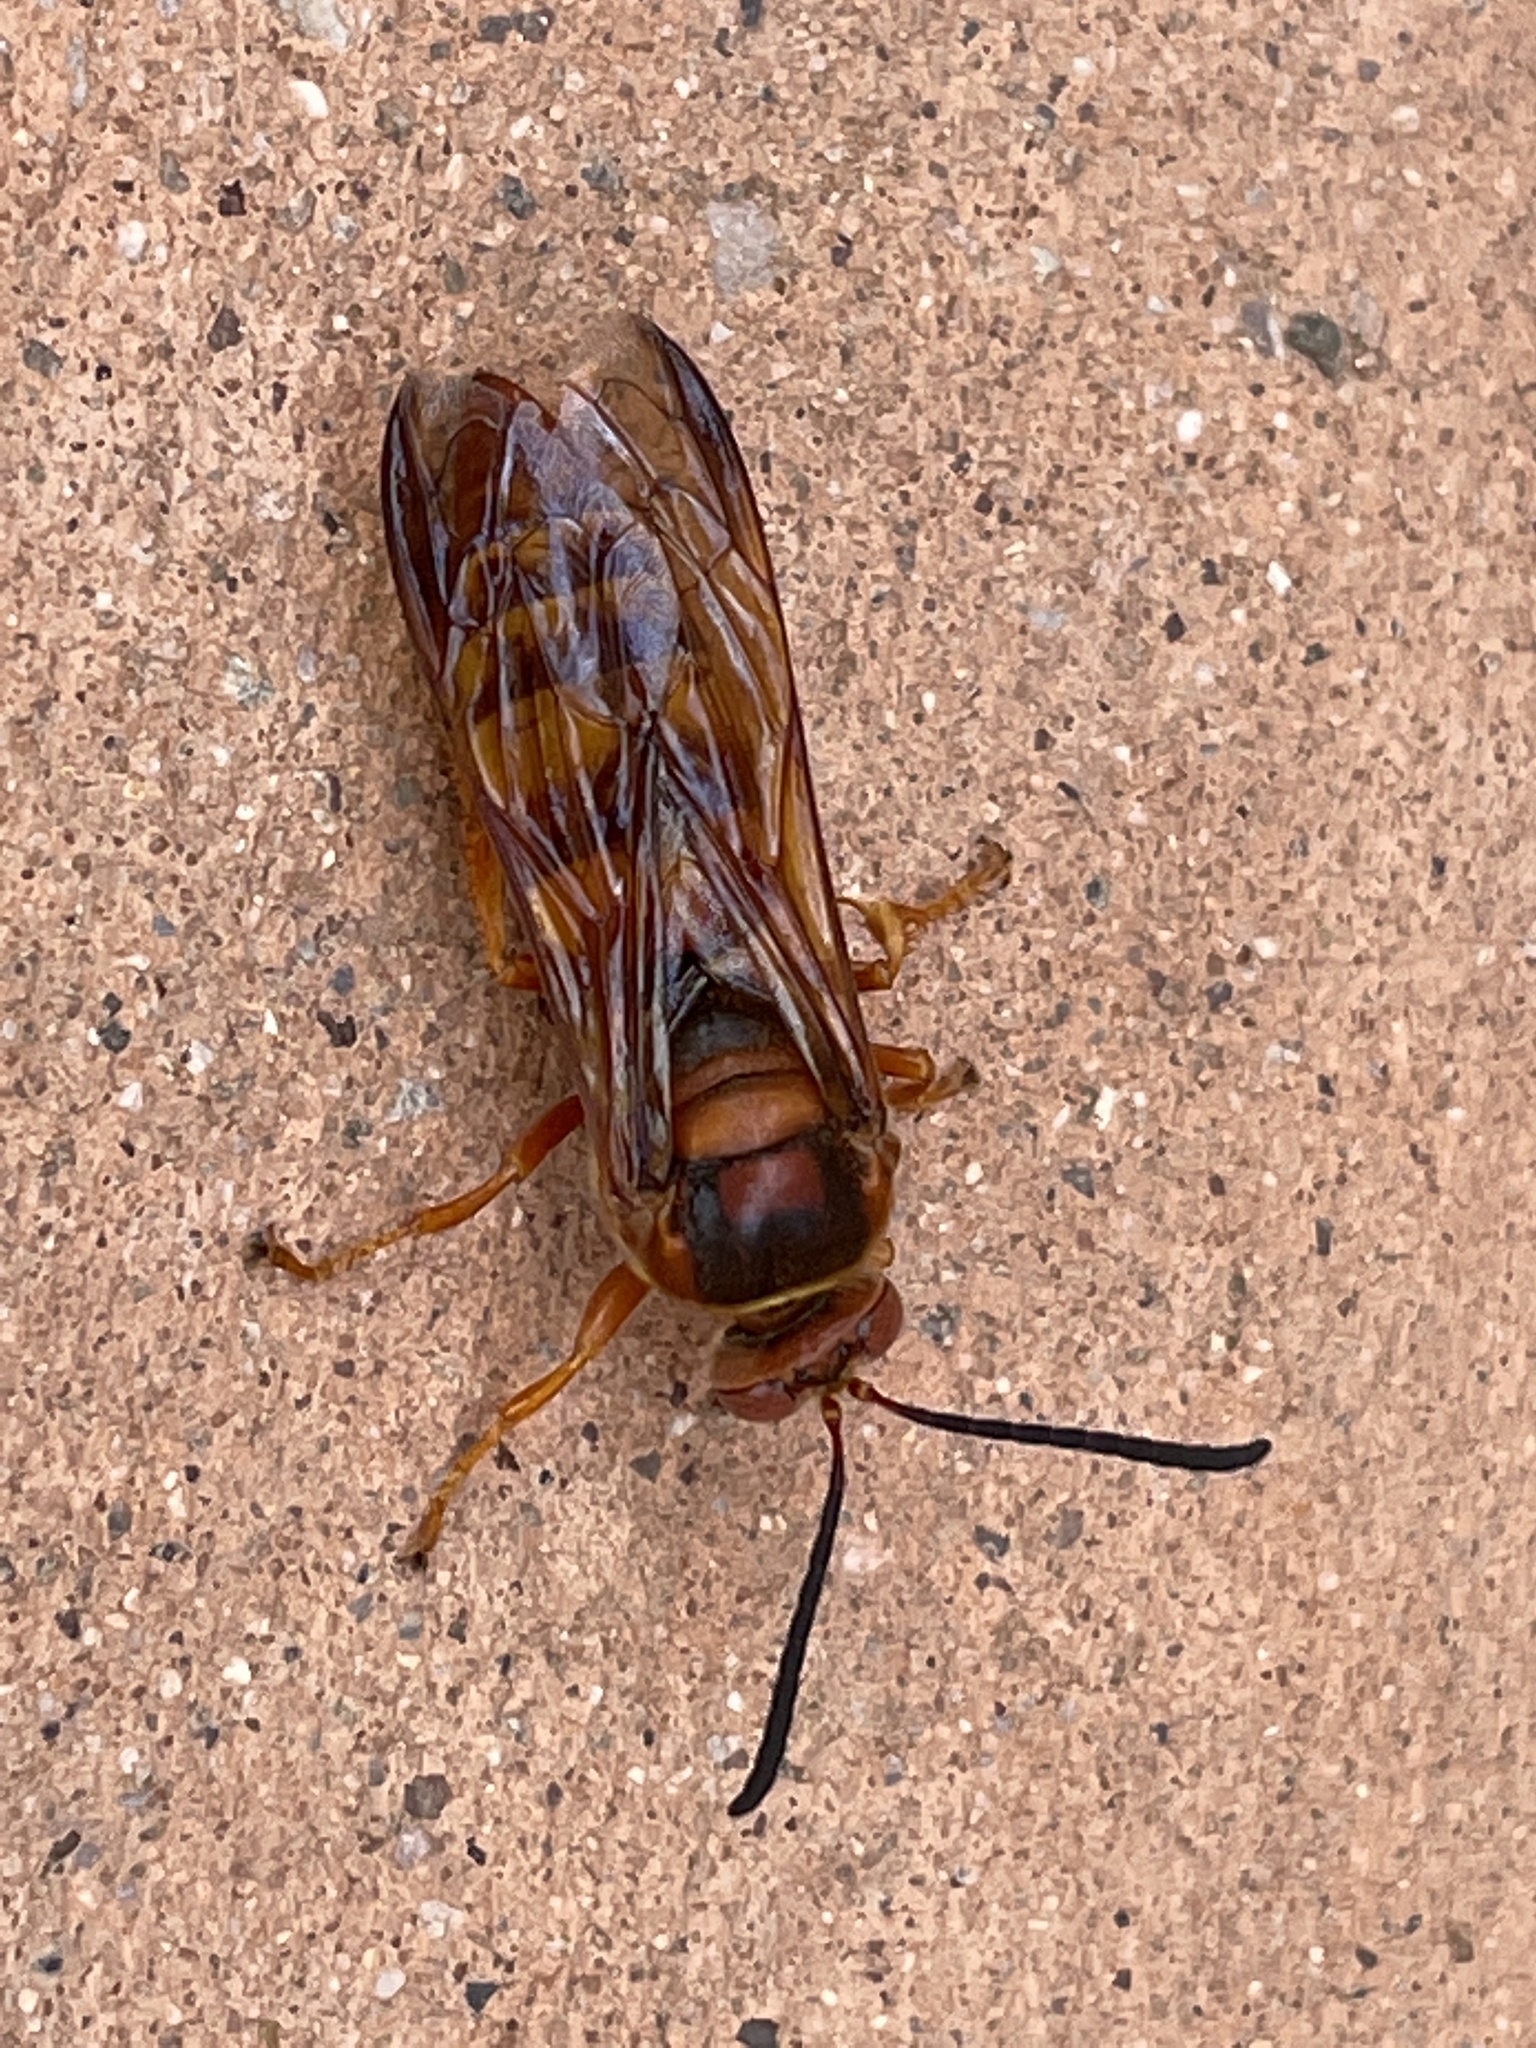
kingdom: Animalia
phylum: Arthropoda
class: Insecta
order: Hymenoptera
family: Crabronidae
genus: Sphecius
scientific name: Sphecius grandis
